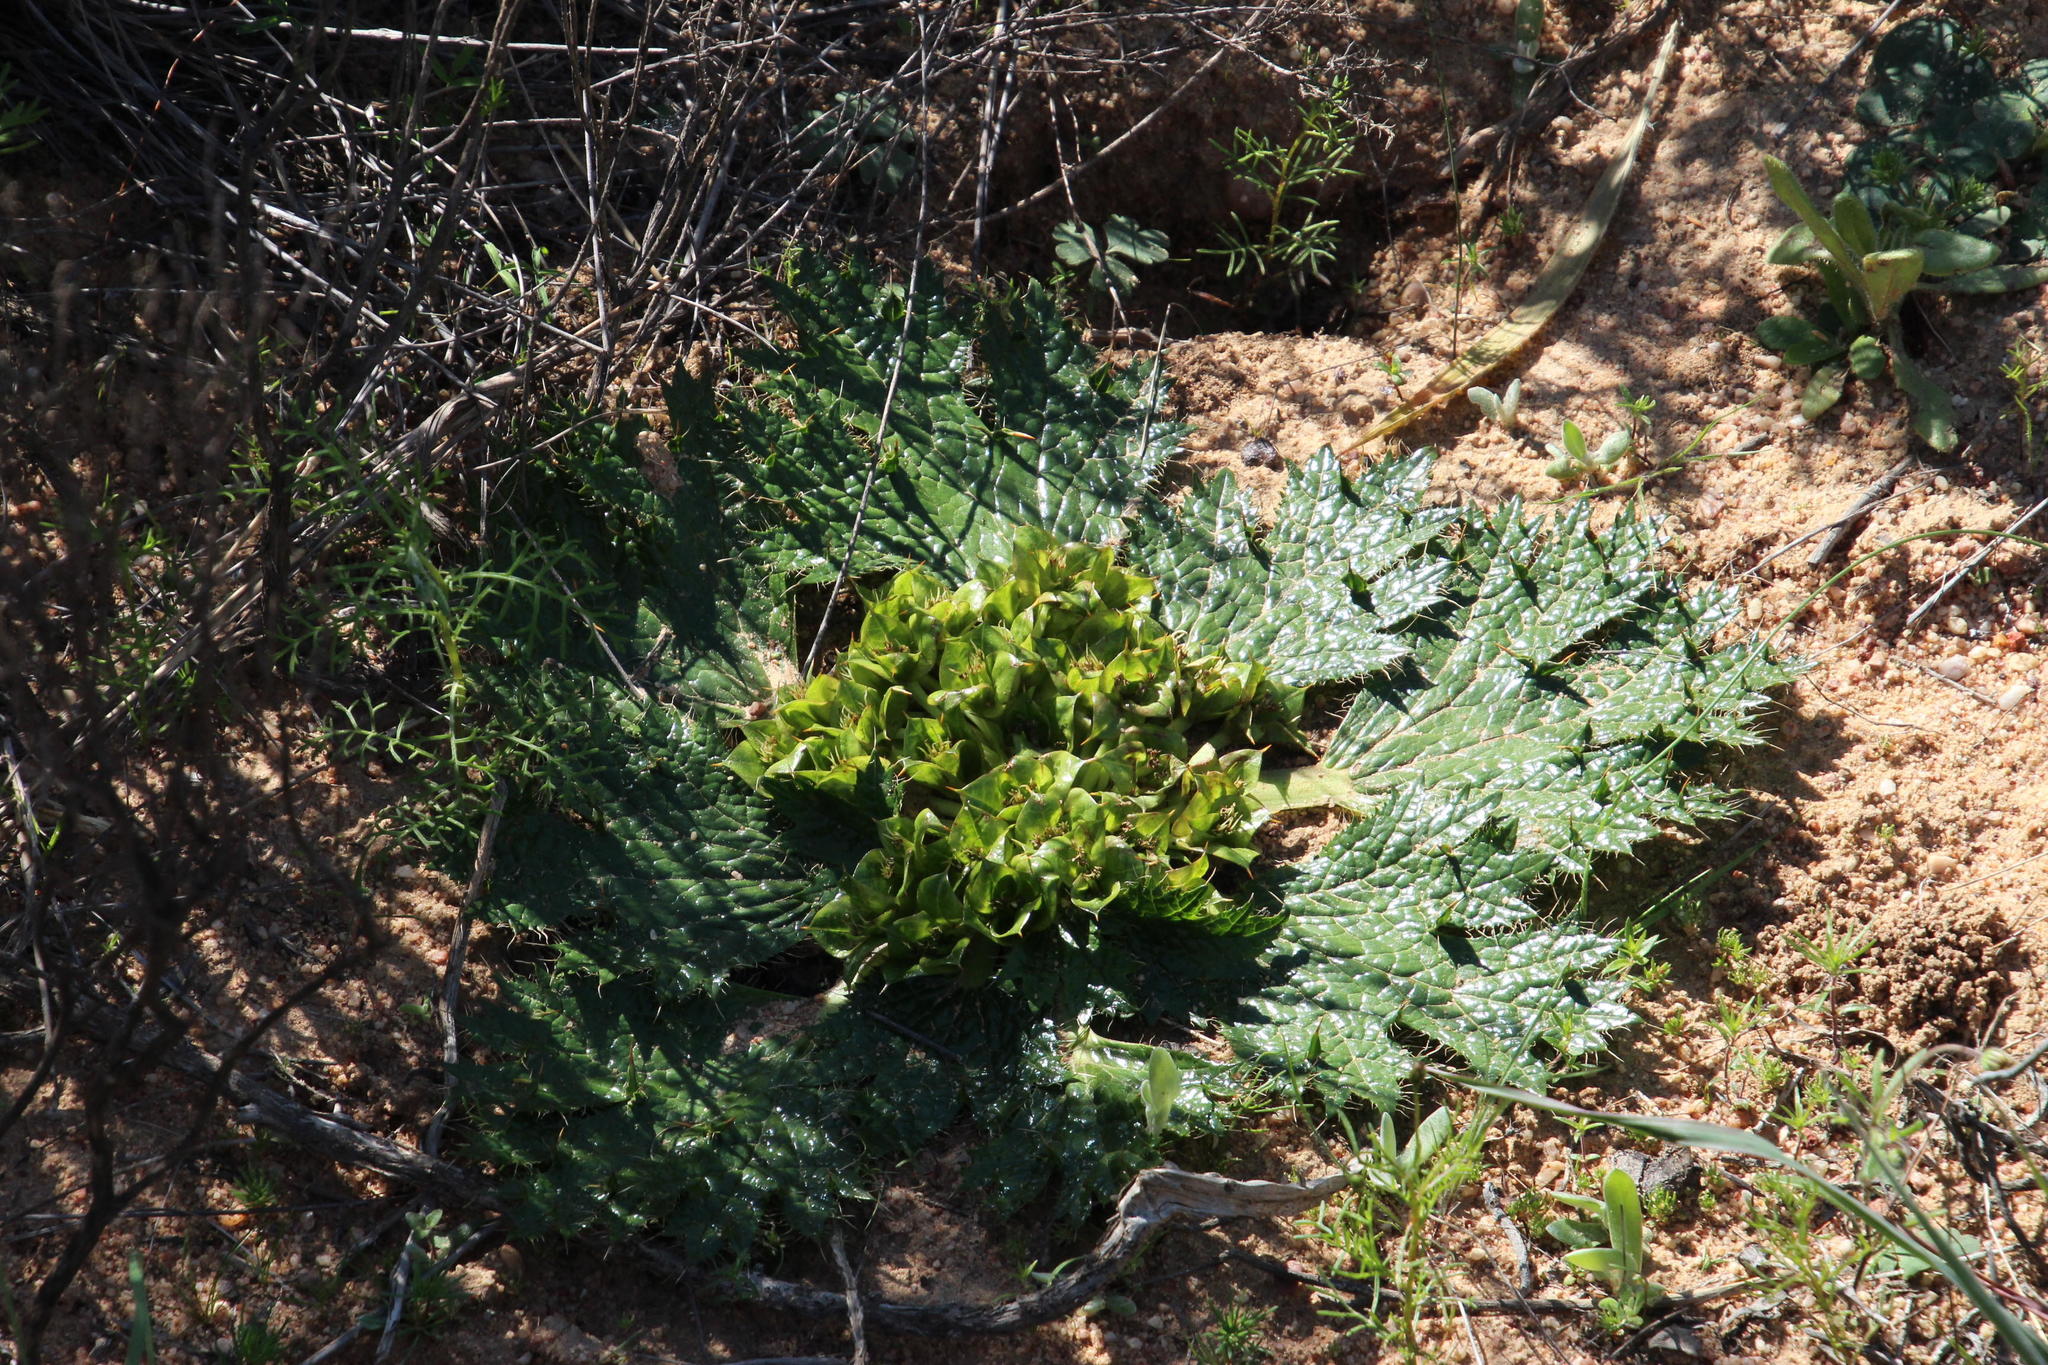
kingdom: Plantae
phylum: Tracheophyta
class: Magnoliopsida
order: Apiales
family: Apiaceae
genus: Arctopus
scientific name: Arctopus monacanthus
